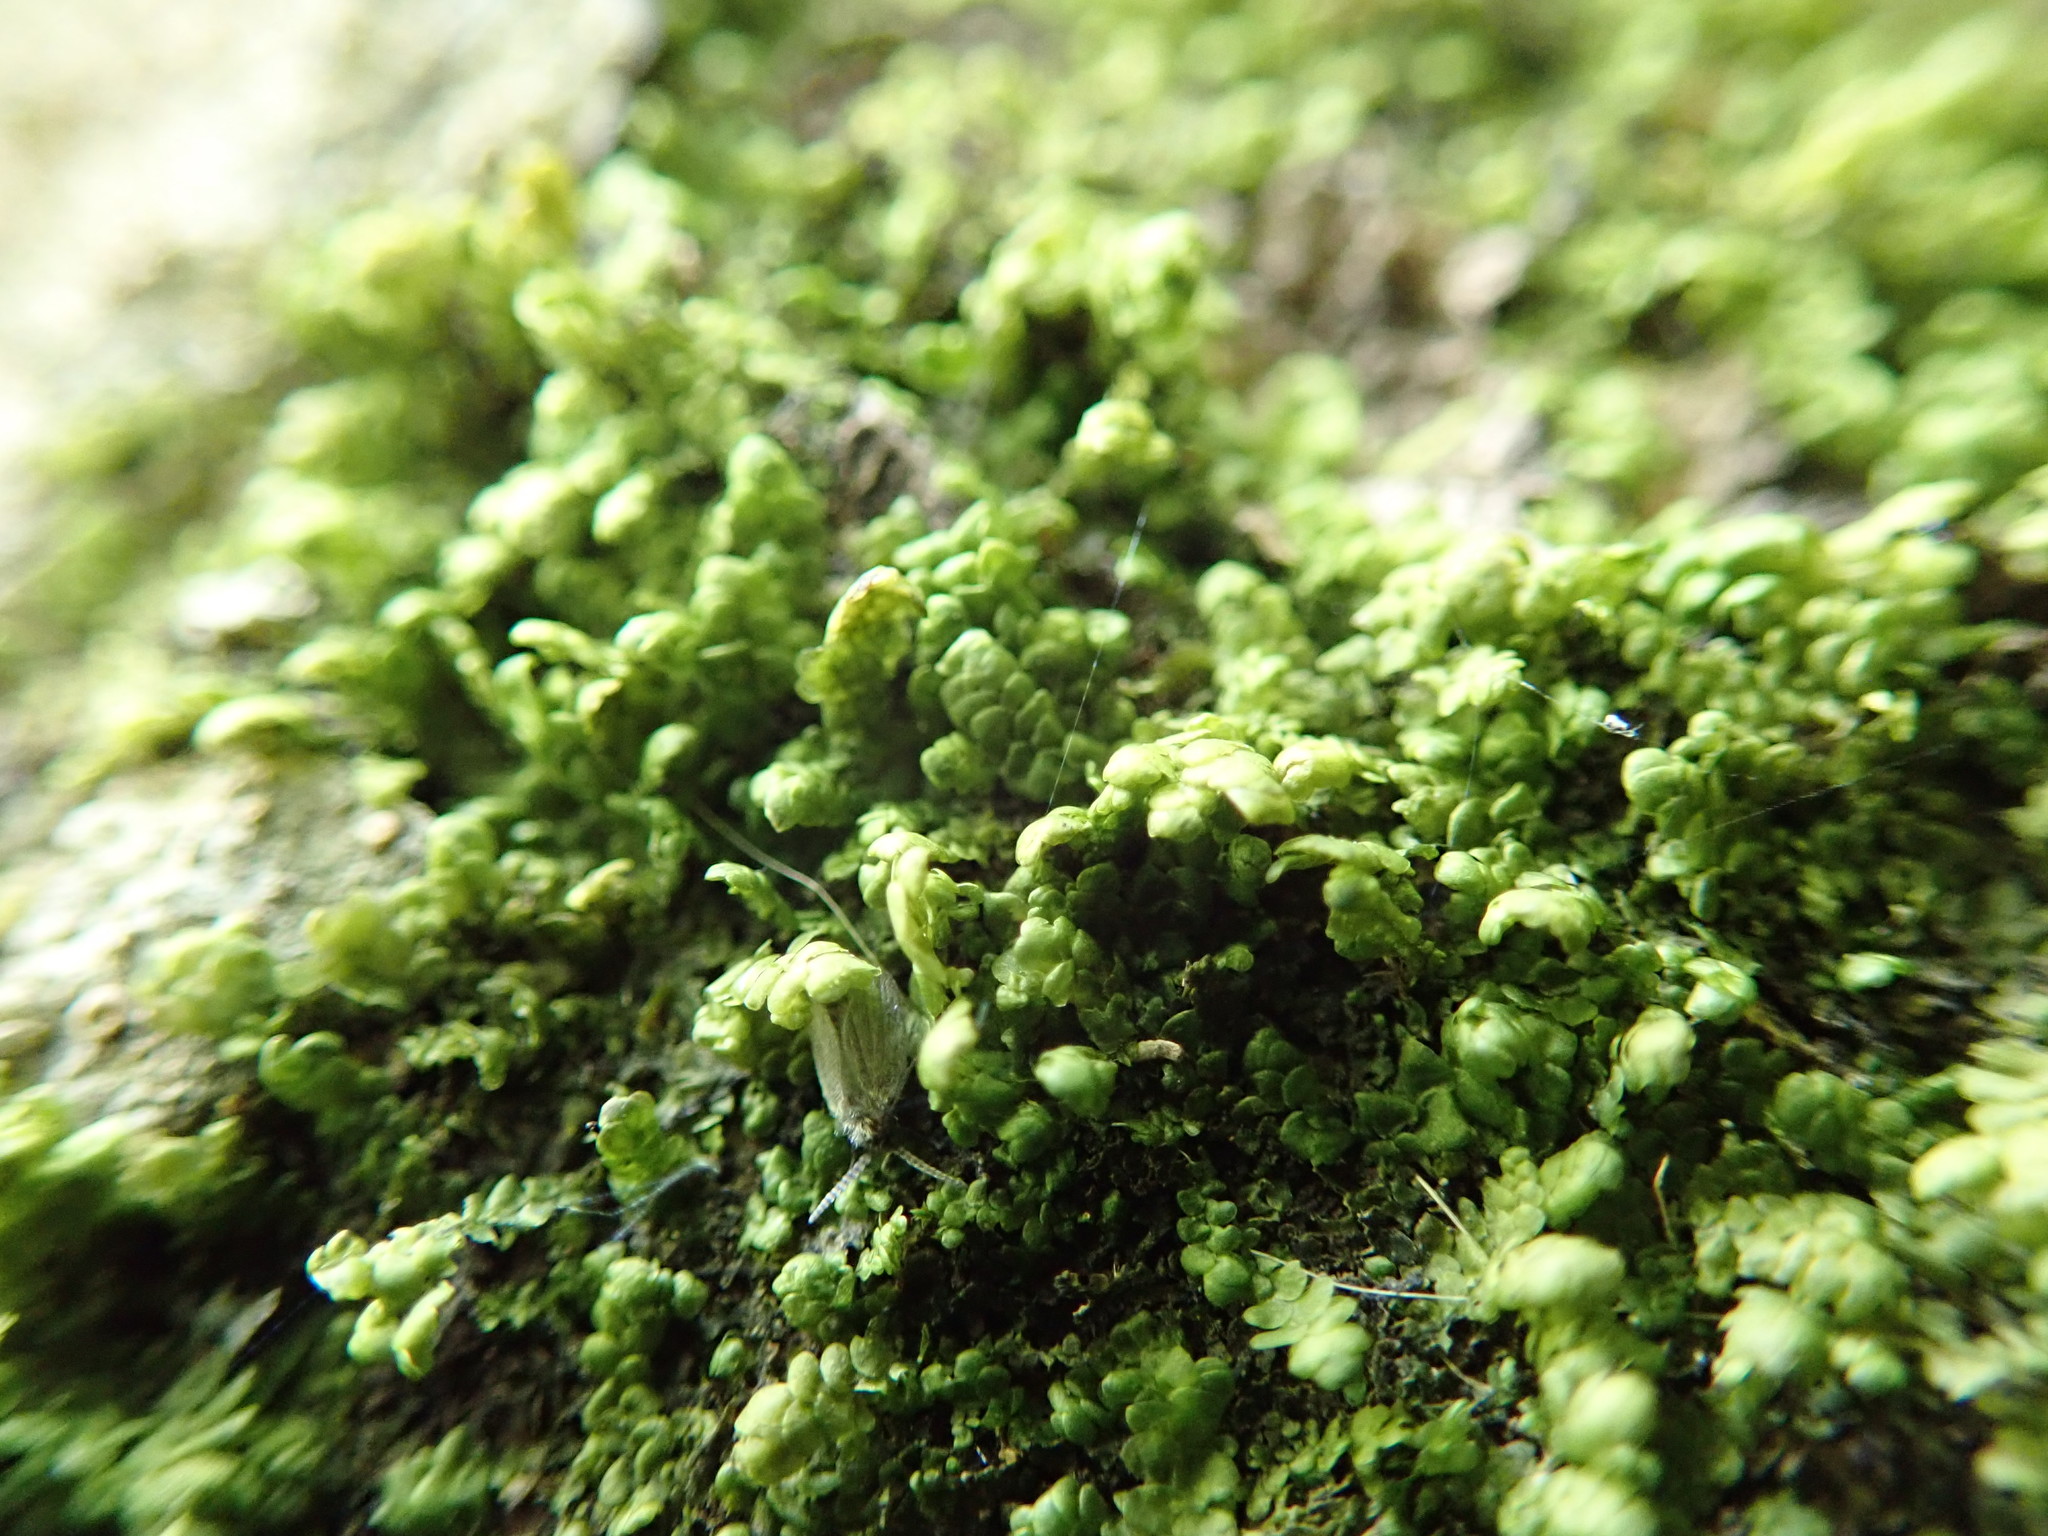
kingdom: Plantae
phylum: Marchantiophyta
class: Jungermanniopsida
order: Porellales
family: Radulaceae
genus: Radula
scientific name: Radula complanata
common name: Flat-leaved scalewort
